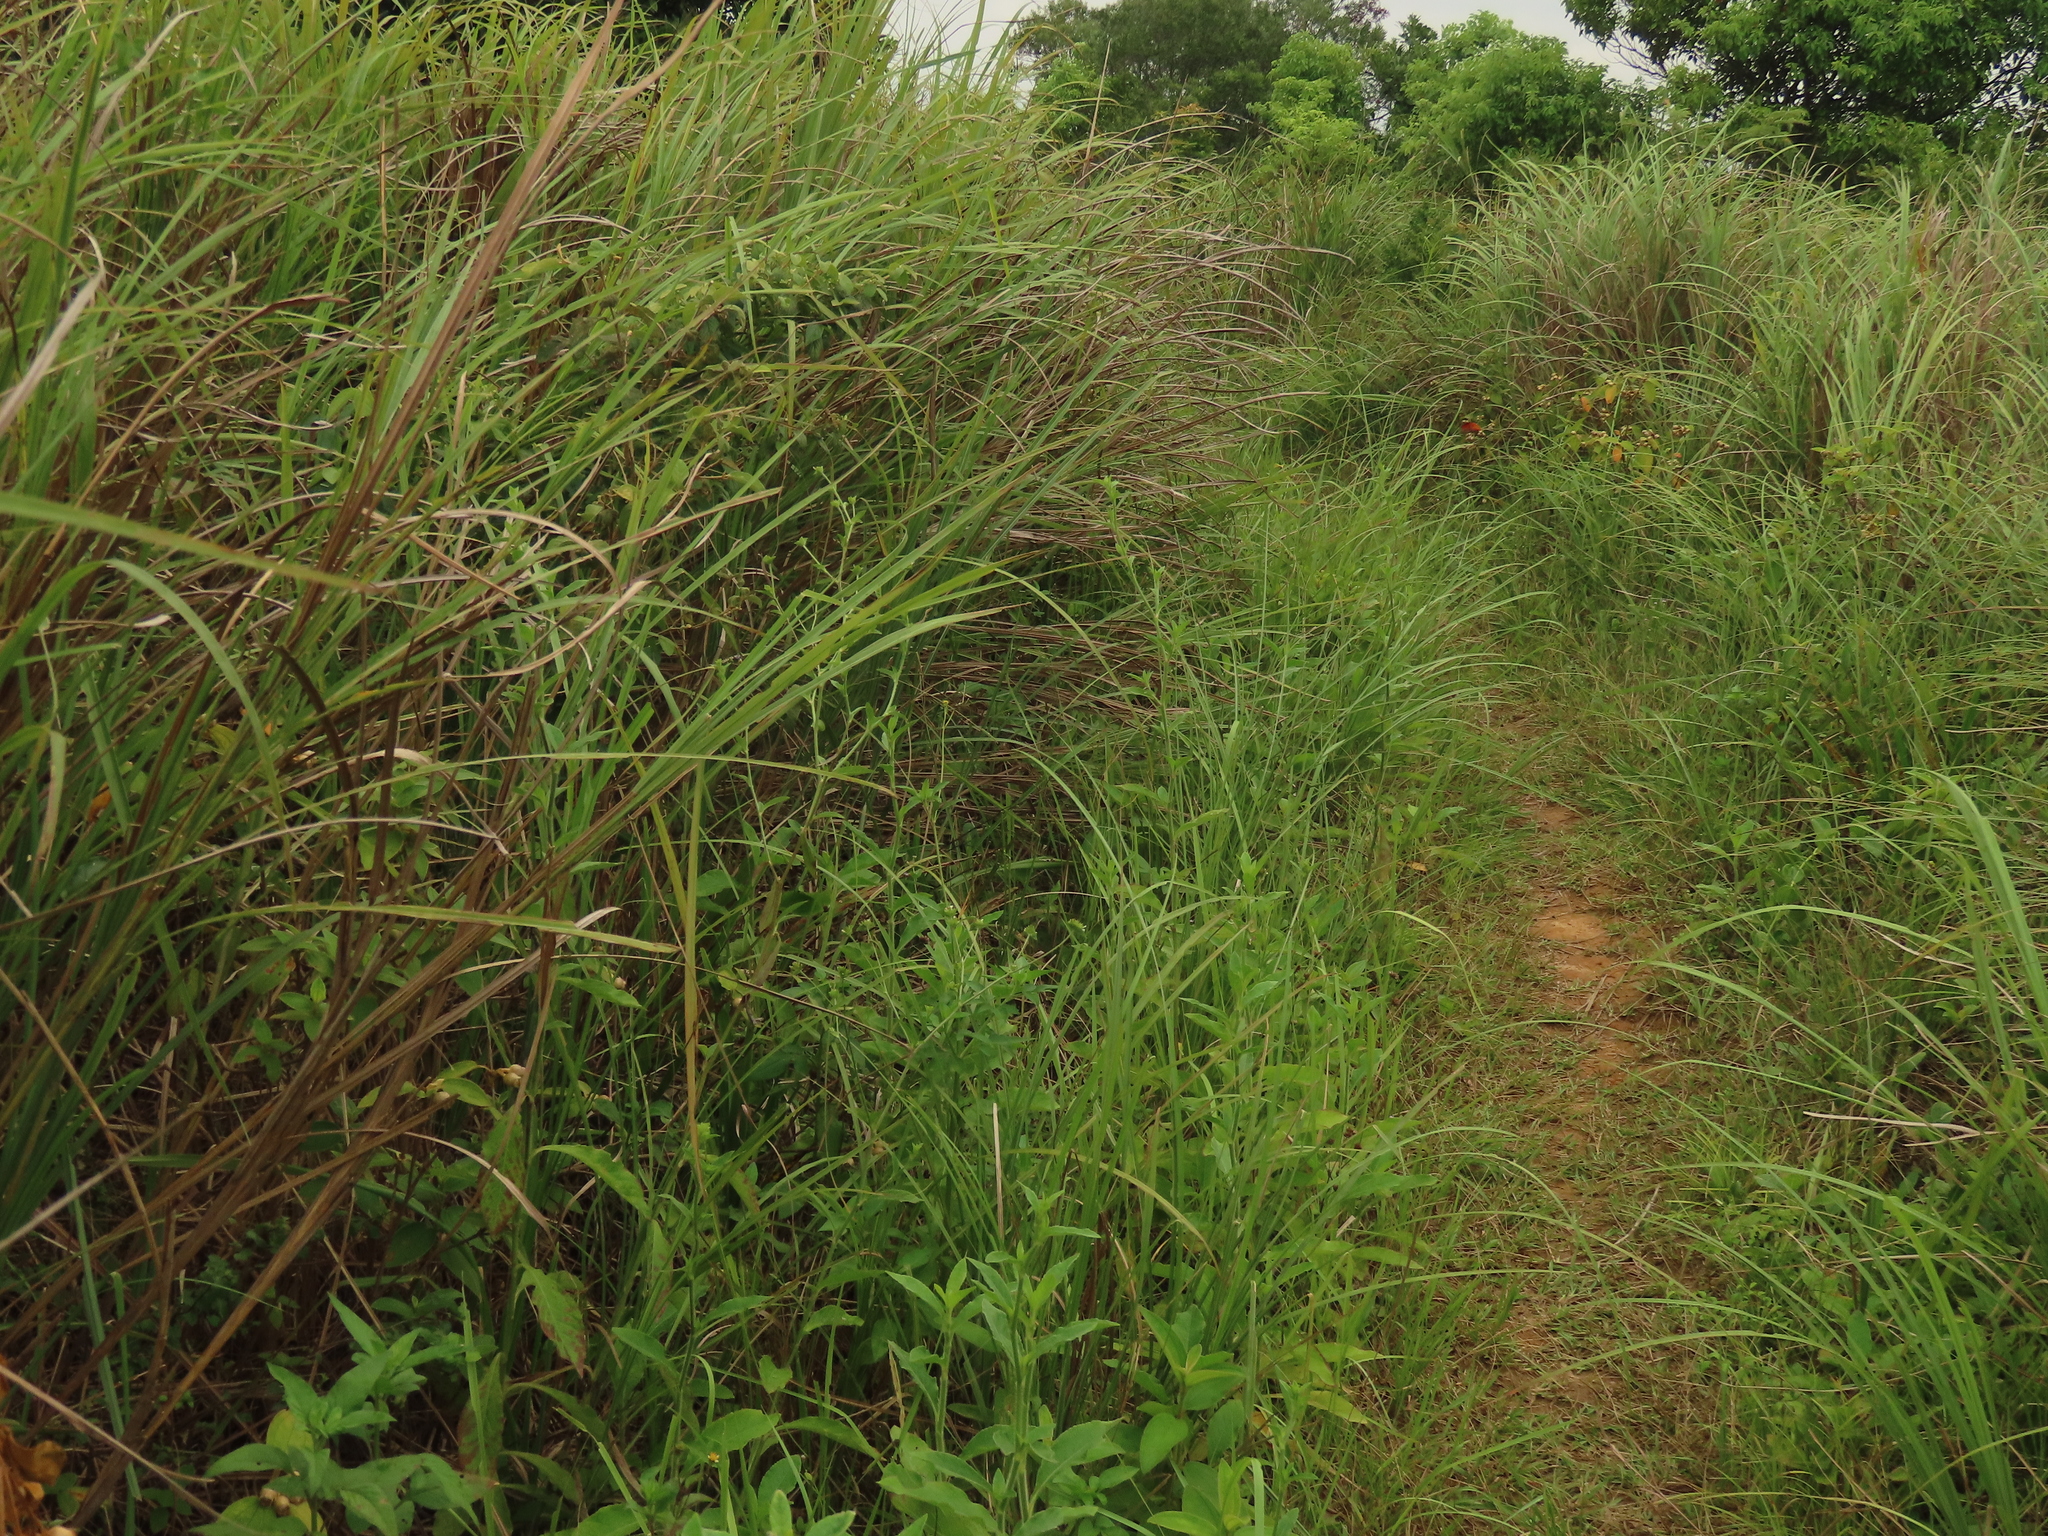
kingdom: Plantae
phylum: Tracheophyta
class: Magnoliopsida
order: Asterales
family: Asteraceae
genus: Elephantopus
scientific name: Elephantopus mollis
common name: Soft elephantsfoot
